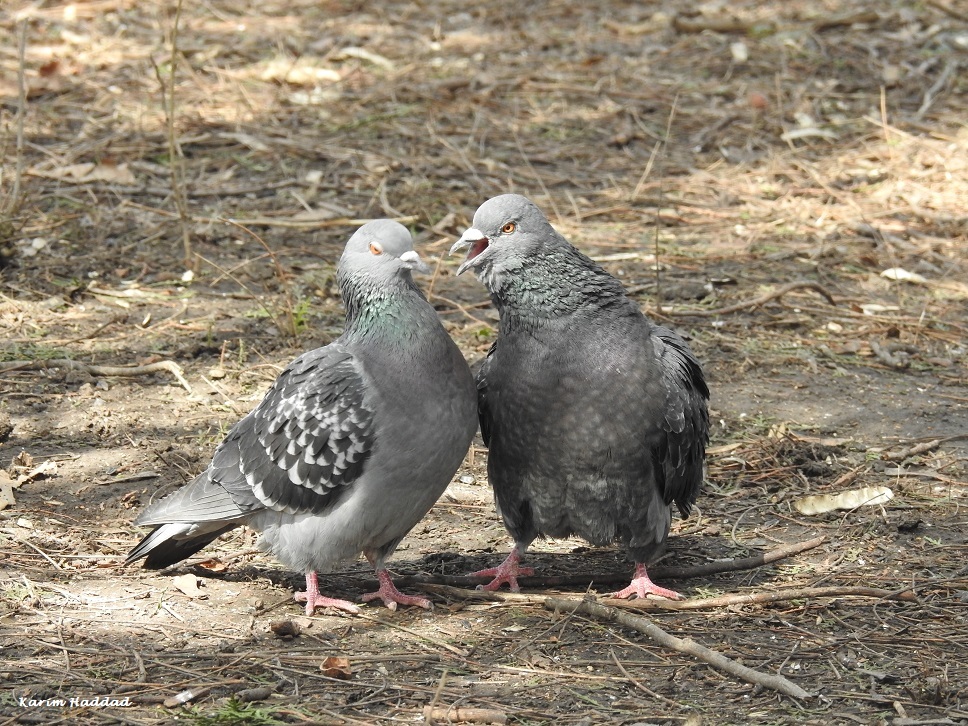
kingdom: Animalia
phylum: Chordata
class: Aves
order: Columbiformes
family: Columbidae
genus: Columba
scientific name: Columba livia
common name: Rock pigeon
